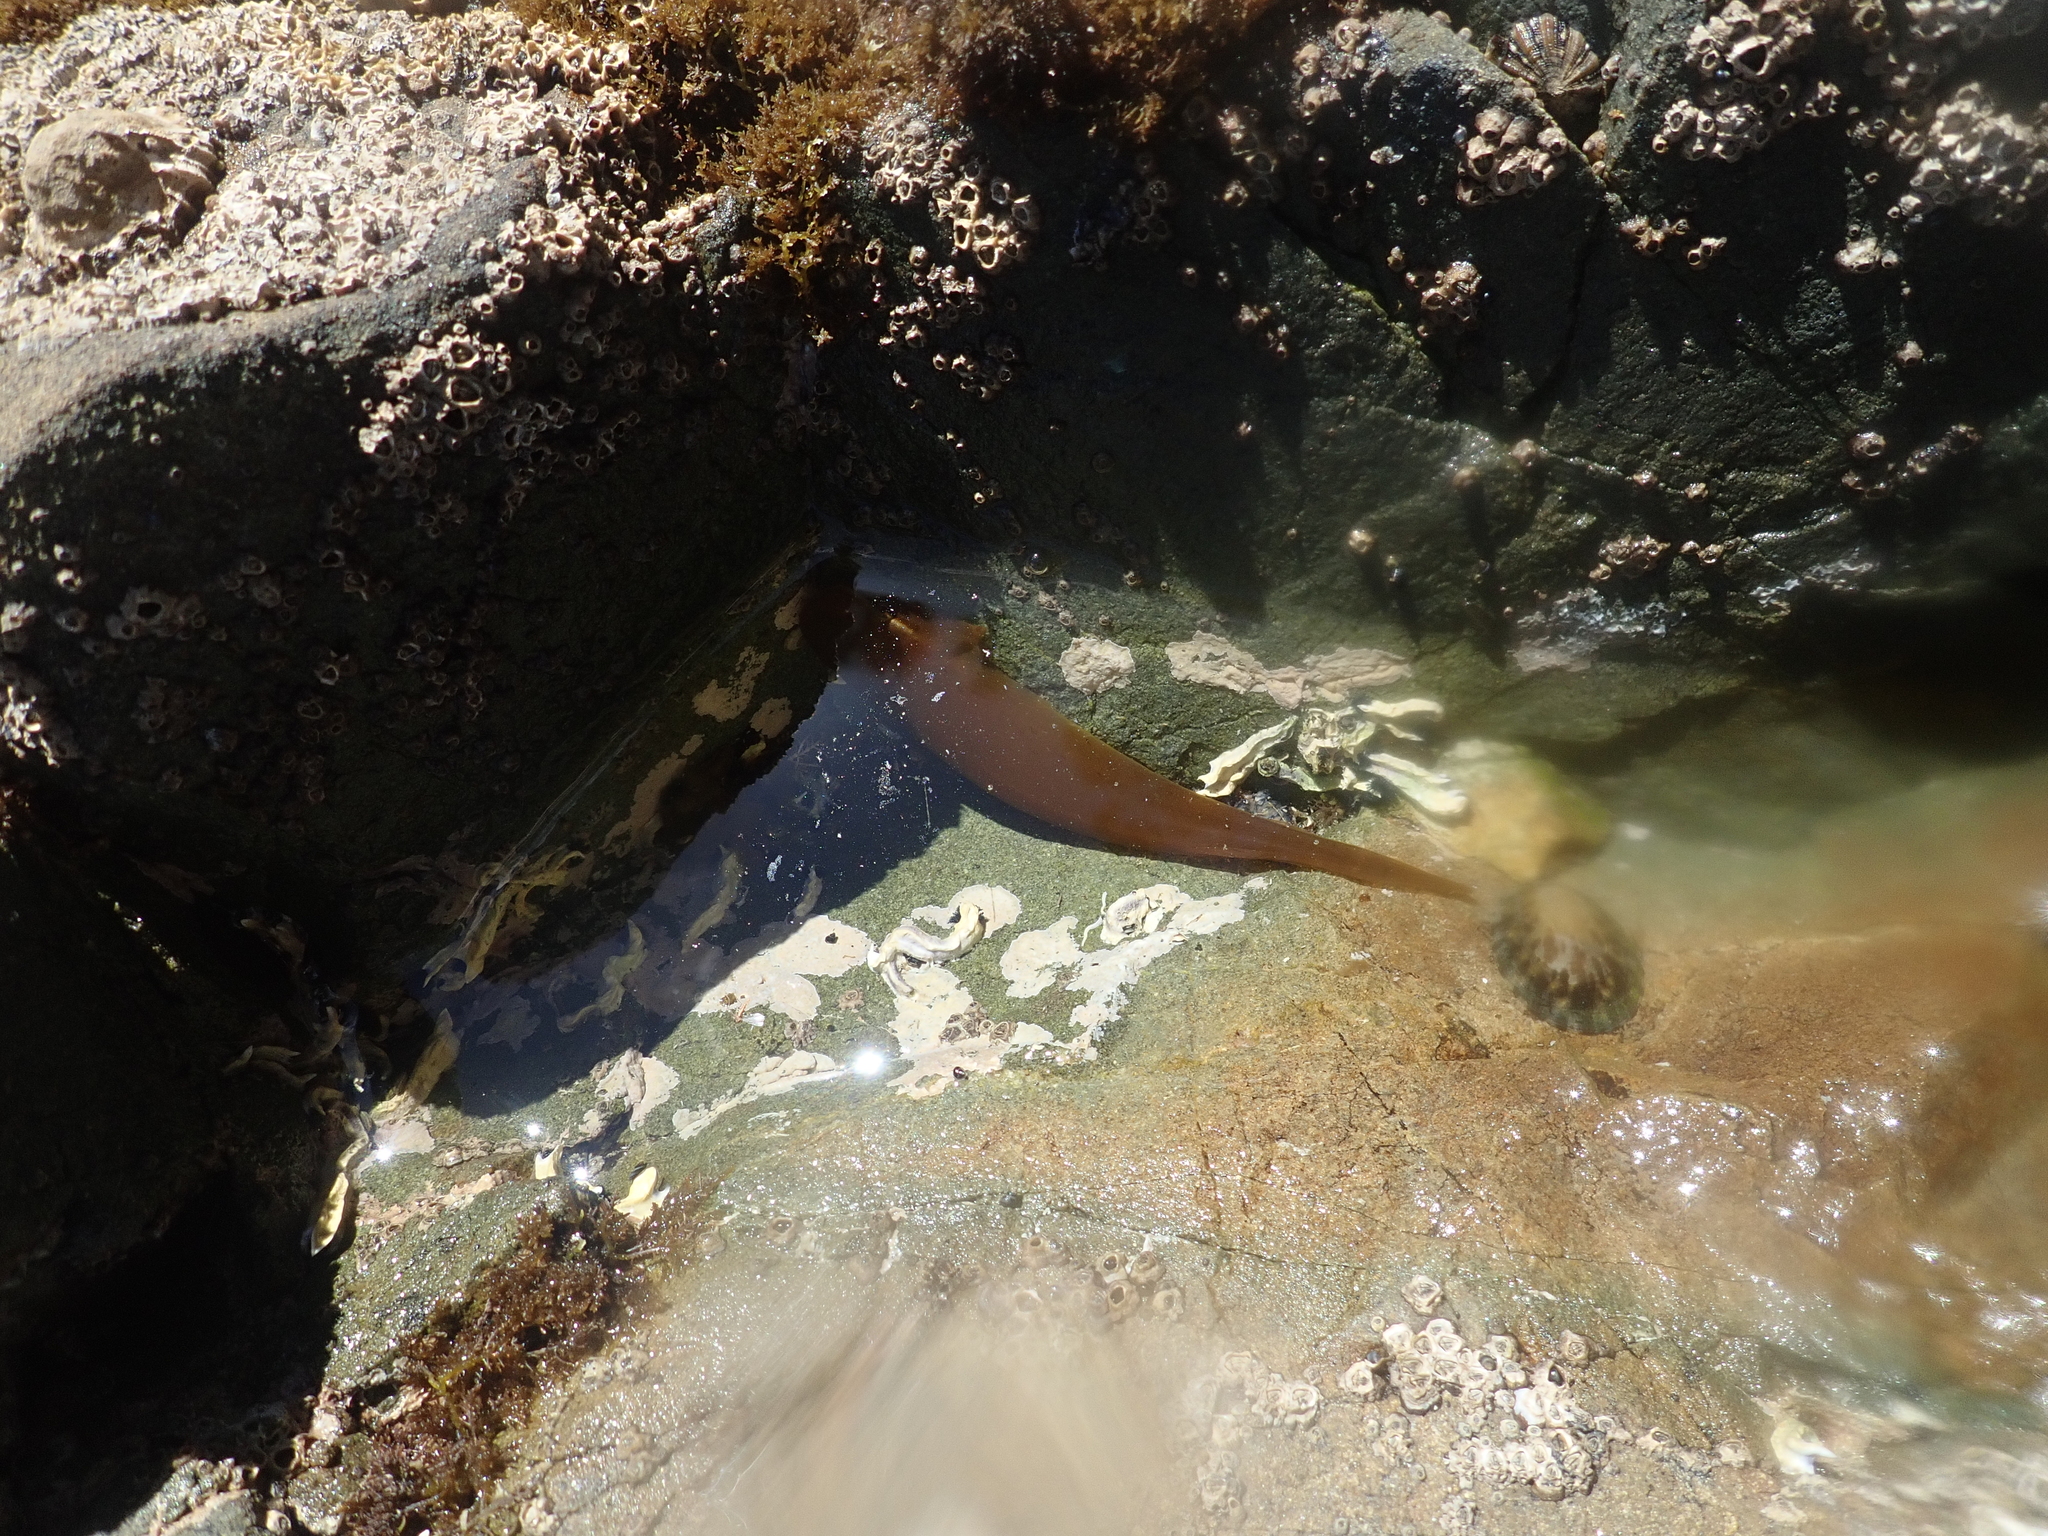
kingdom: Animalia
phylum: Chordata
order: Gobiesociformes
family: Gobiesocidae
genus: Haplocylix
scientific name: Haplocylix littoreus
